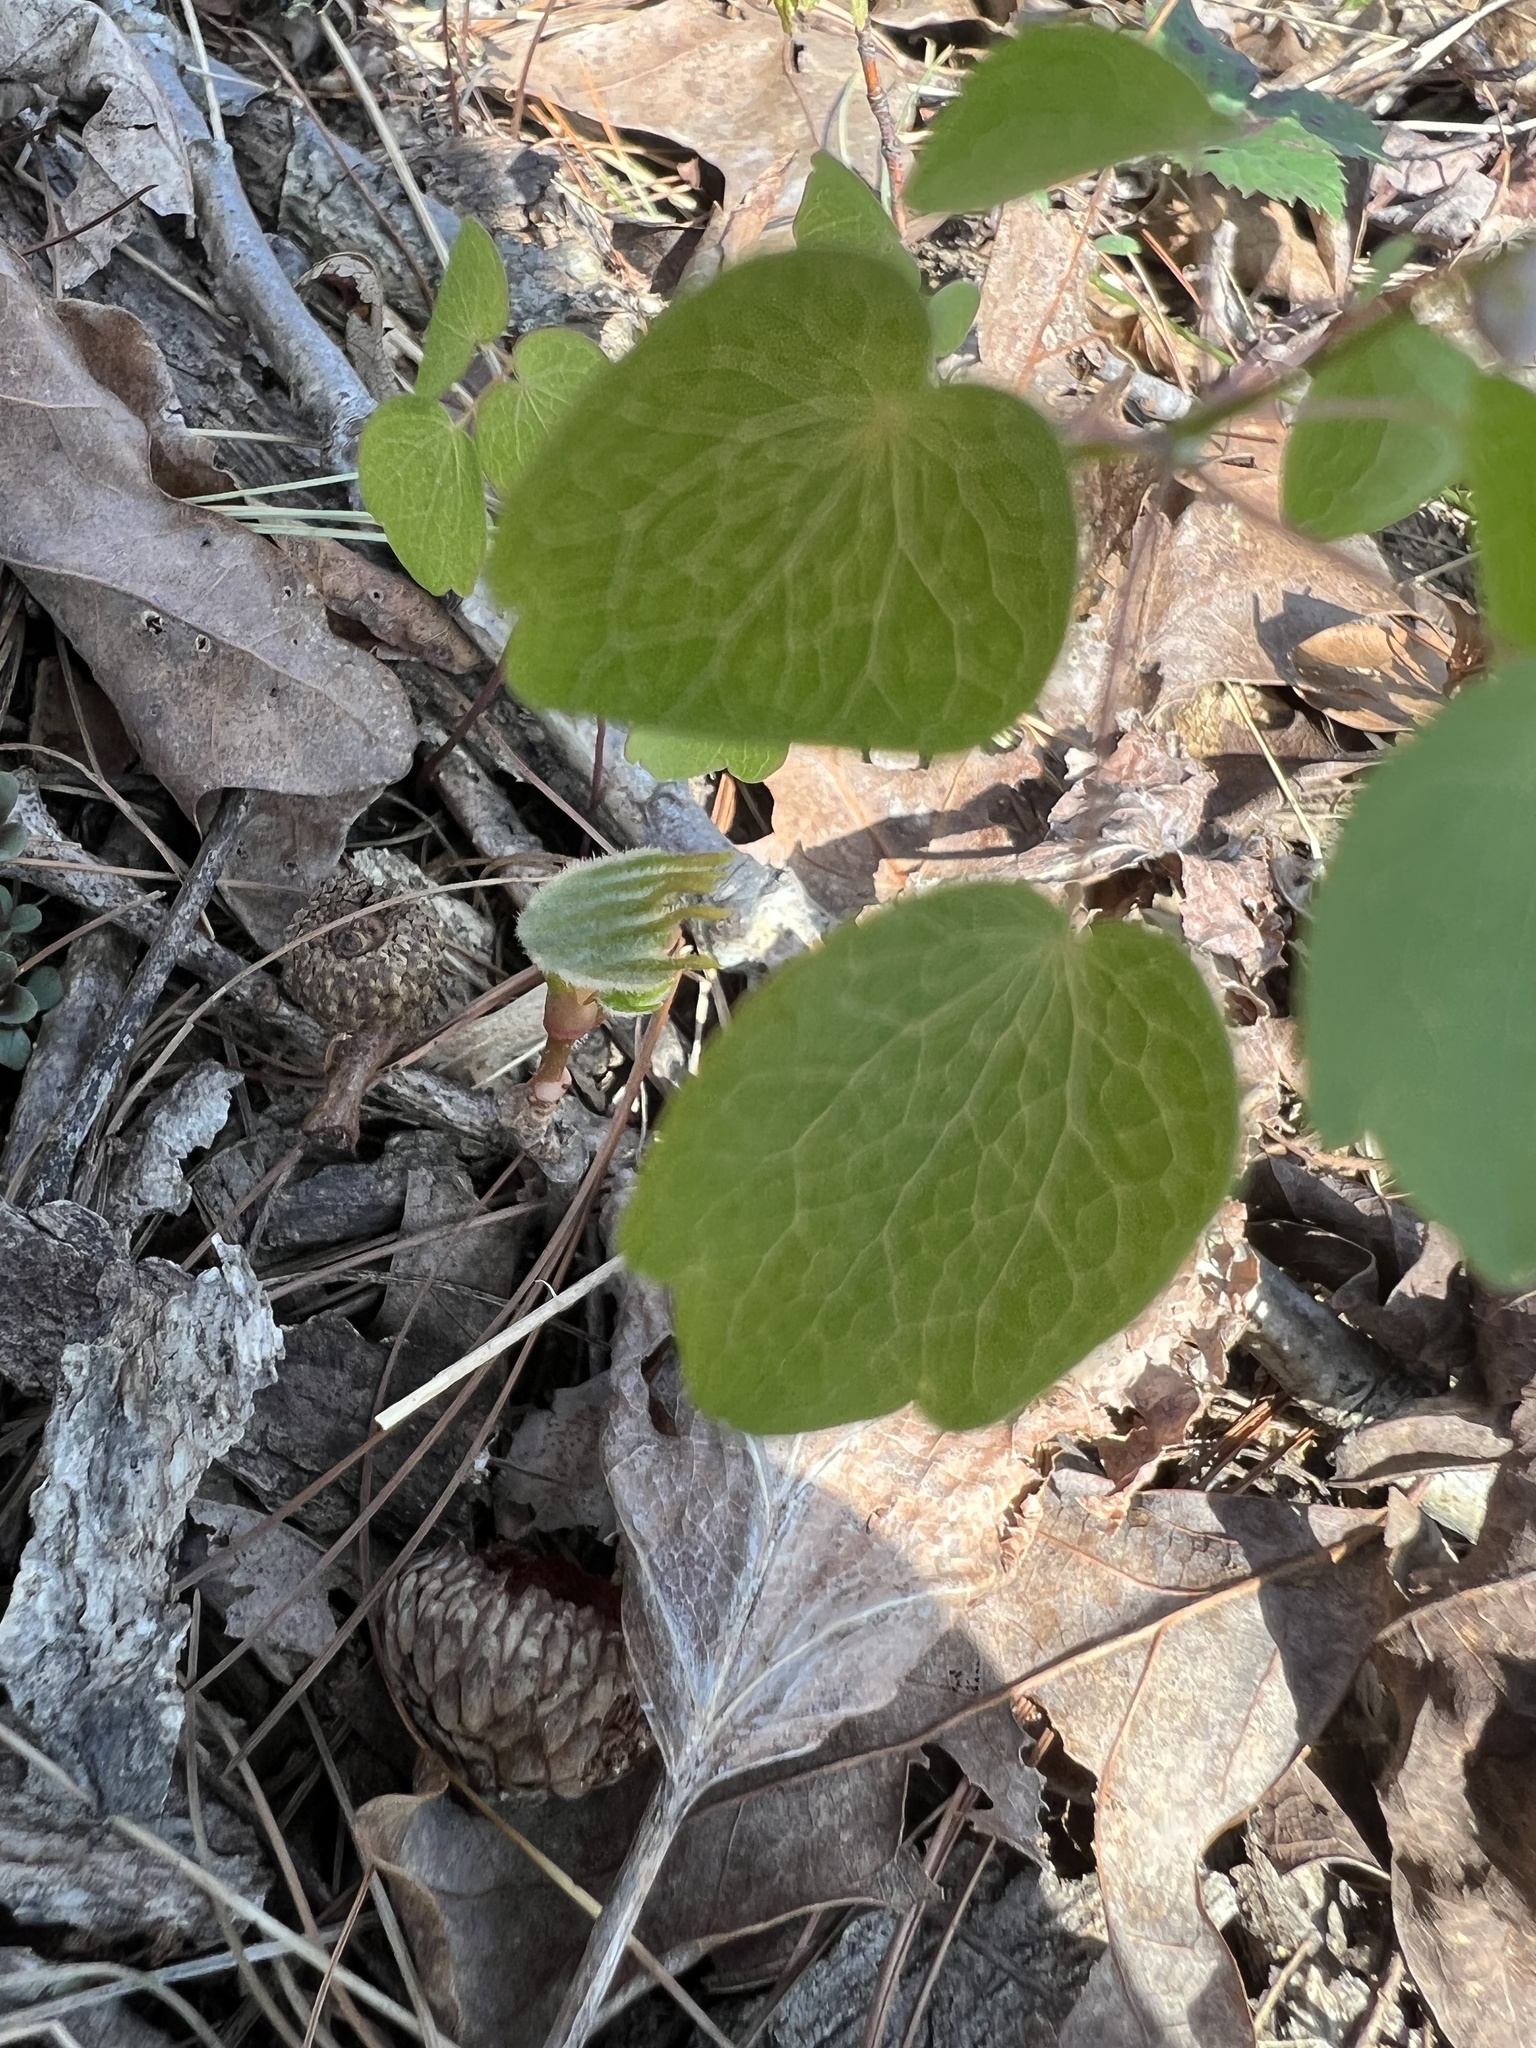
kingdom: Plantae
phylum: Tracheophyta
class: Magnoliopsida
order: Ranunculales
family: Ranunculaceae
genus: Thalictrum
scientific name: Thalictrum thalictroides
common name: Rue-anemone
